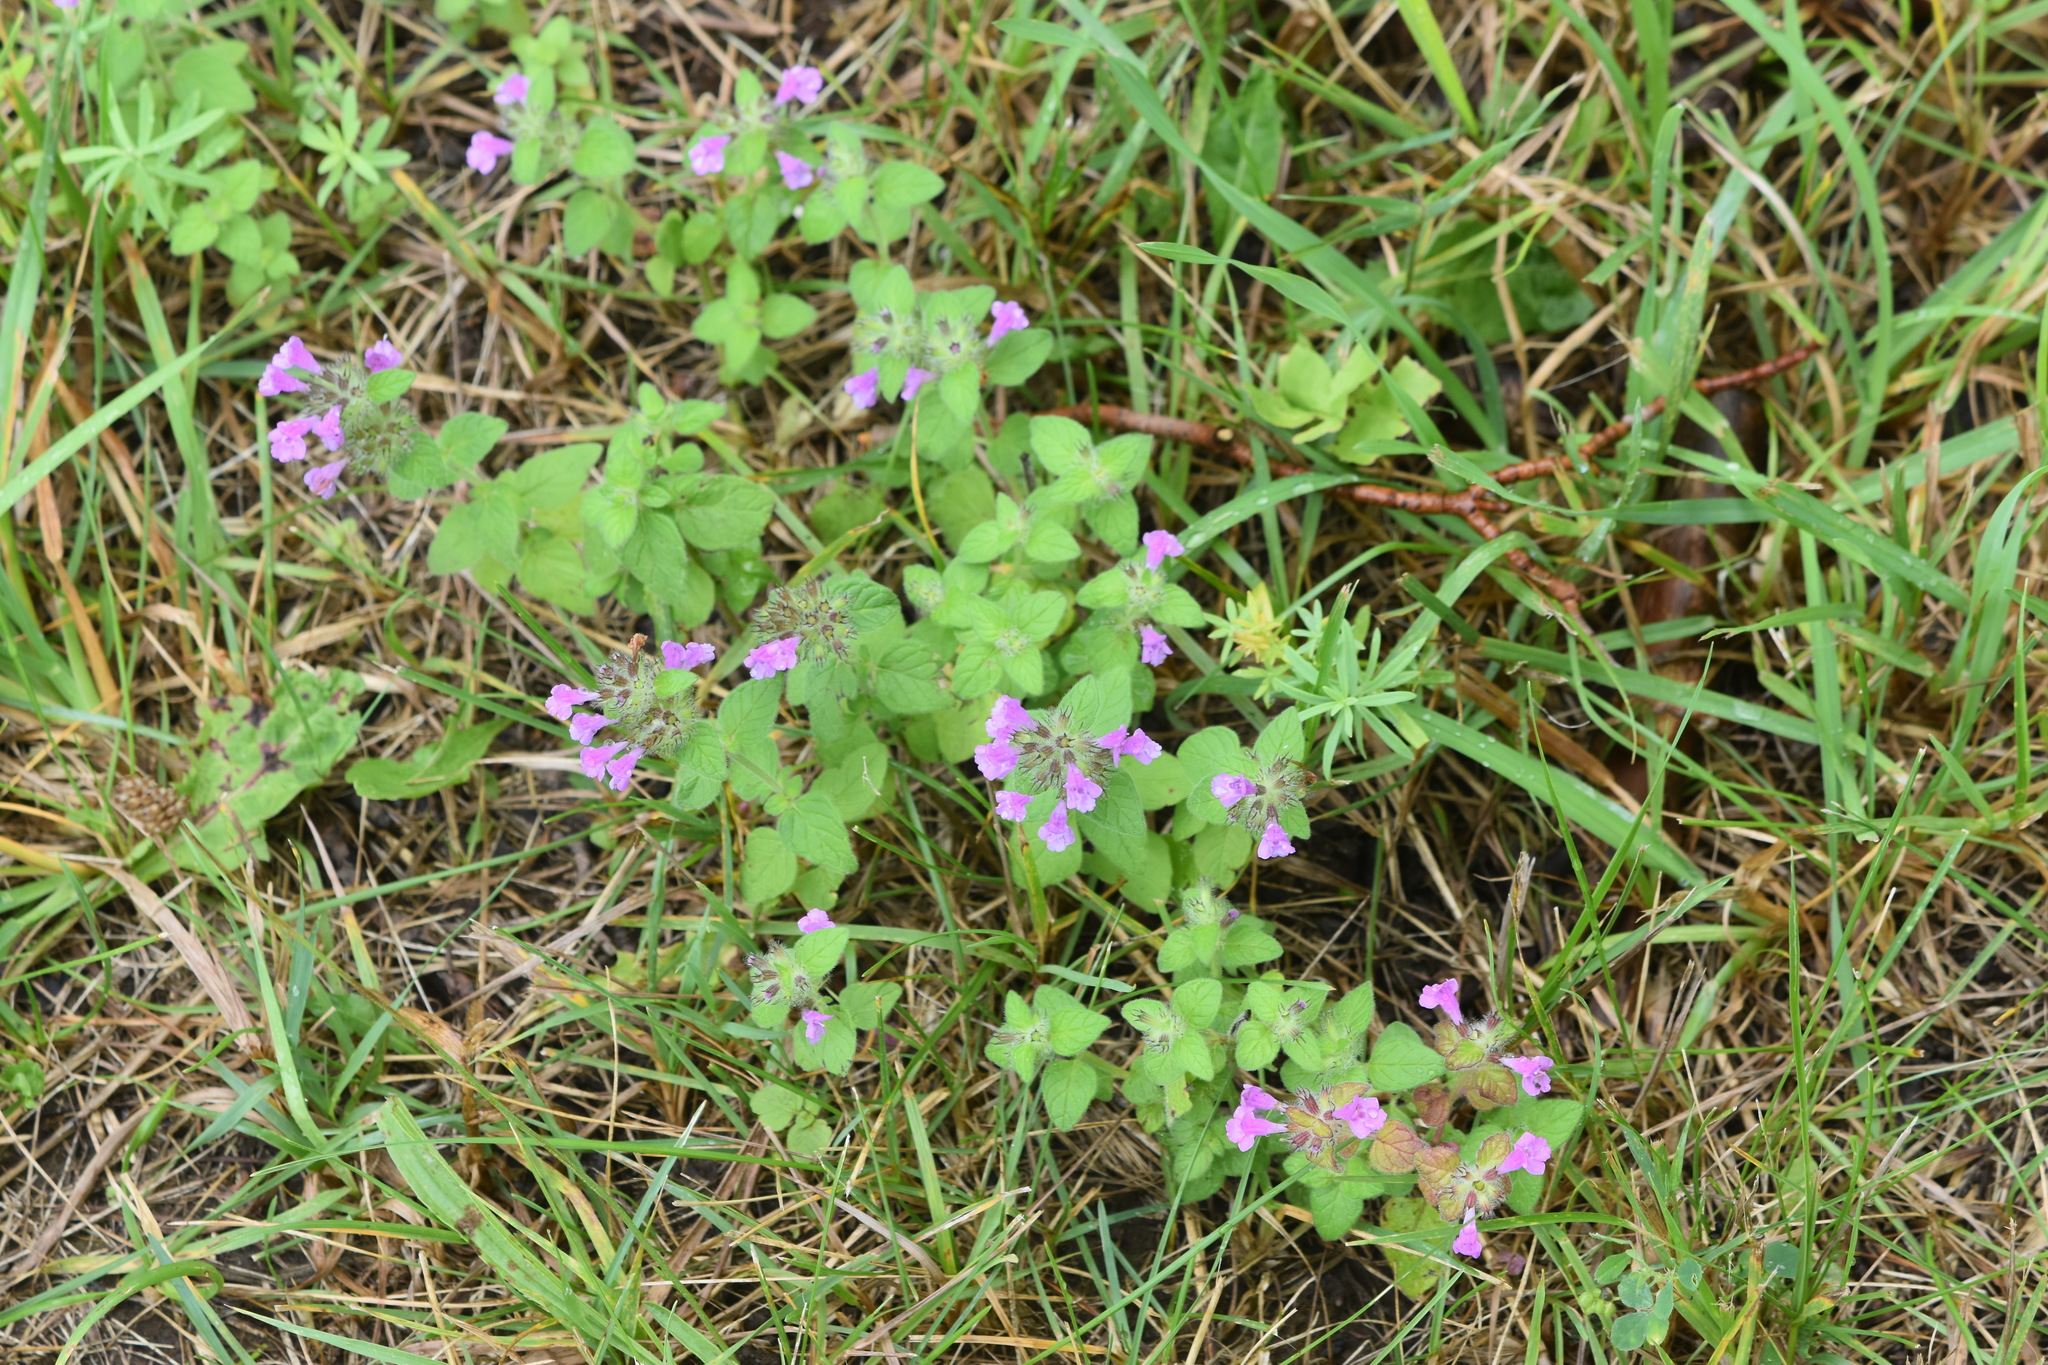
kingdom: Plantae
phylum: Tracheophyta
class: Magnoliopsida
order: Lamiales
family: Lamiaceae
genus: Clinopodium
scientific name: Clinopodium vulgare
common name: Wild basil
